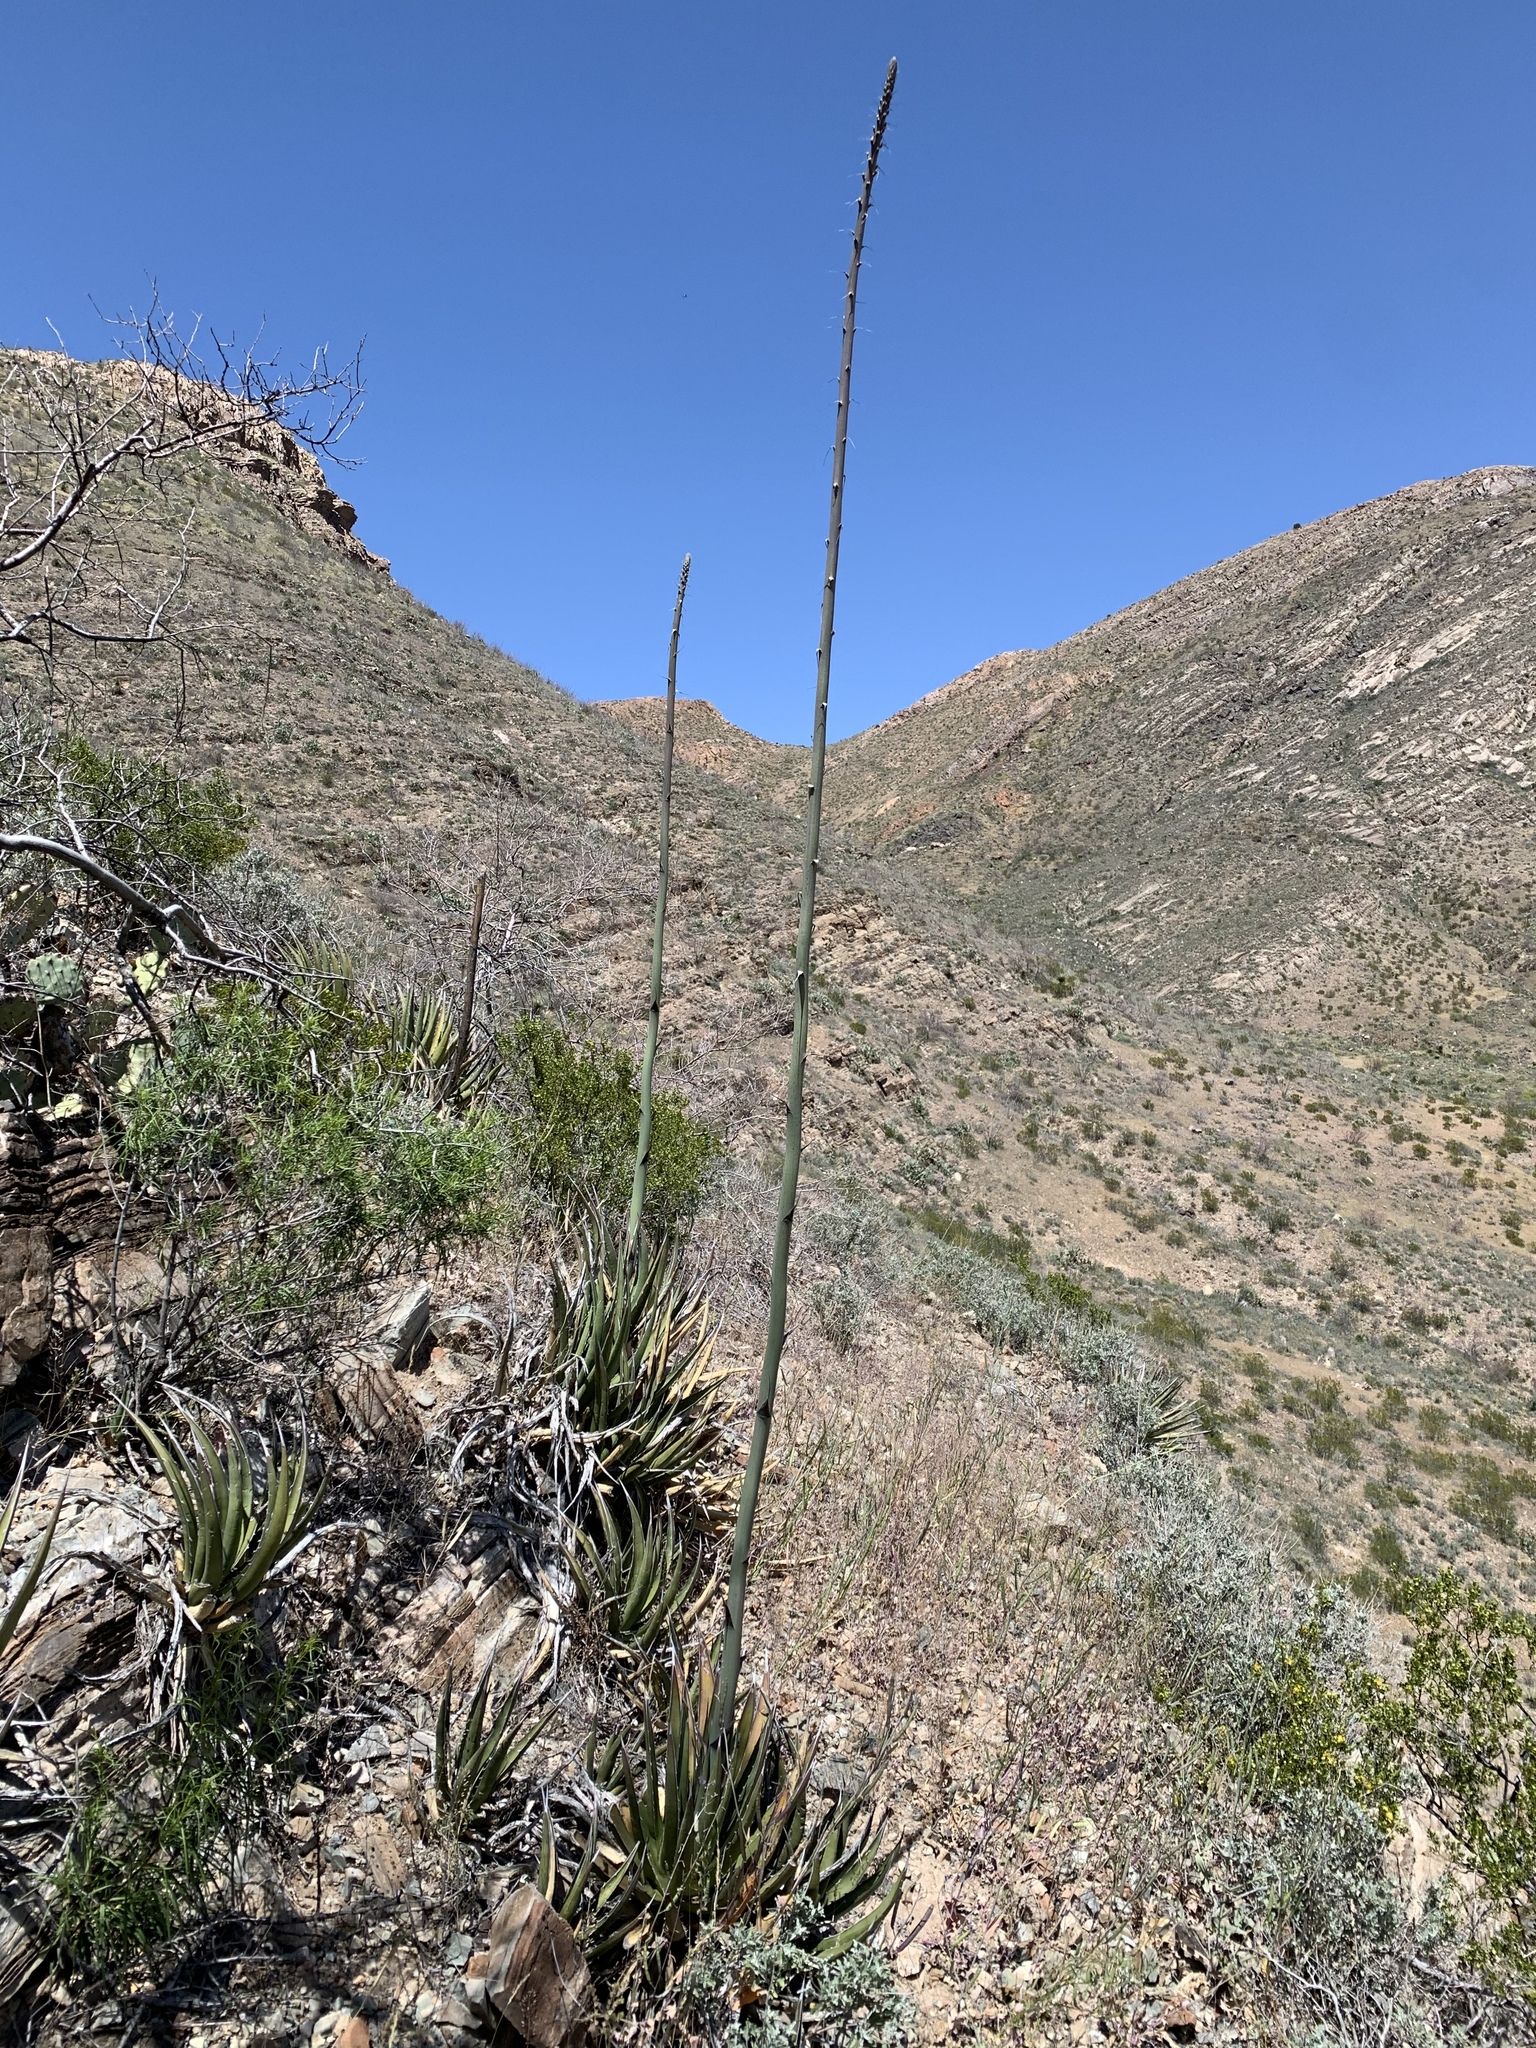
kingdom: Plantae
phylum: Tracheophyta
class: Liliopsida
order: Asparagales
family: Asparagaceae
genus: Agave
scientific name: Agave lechuguilla
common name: Lecheguilla agave
